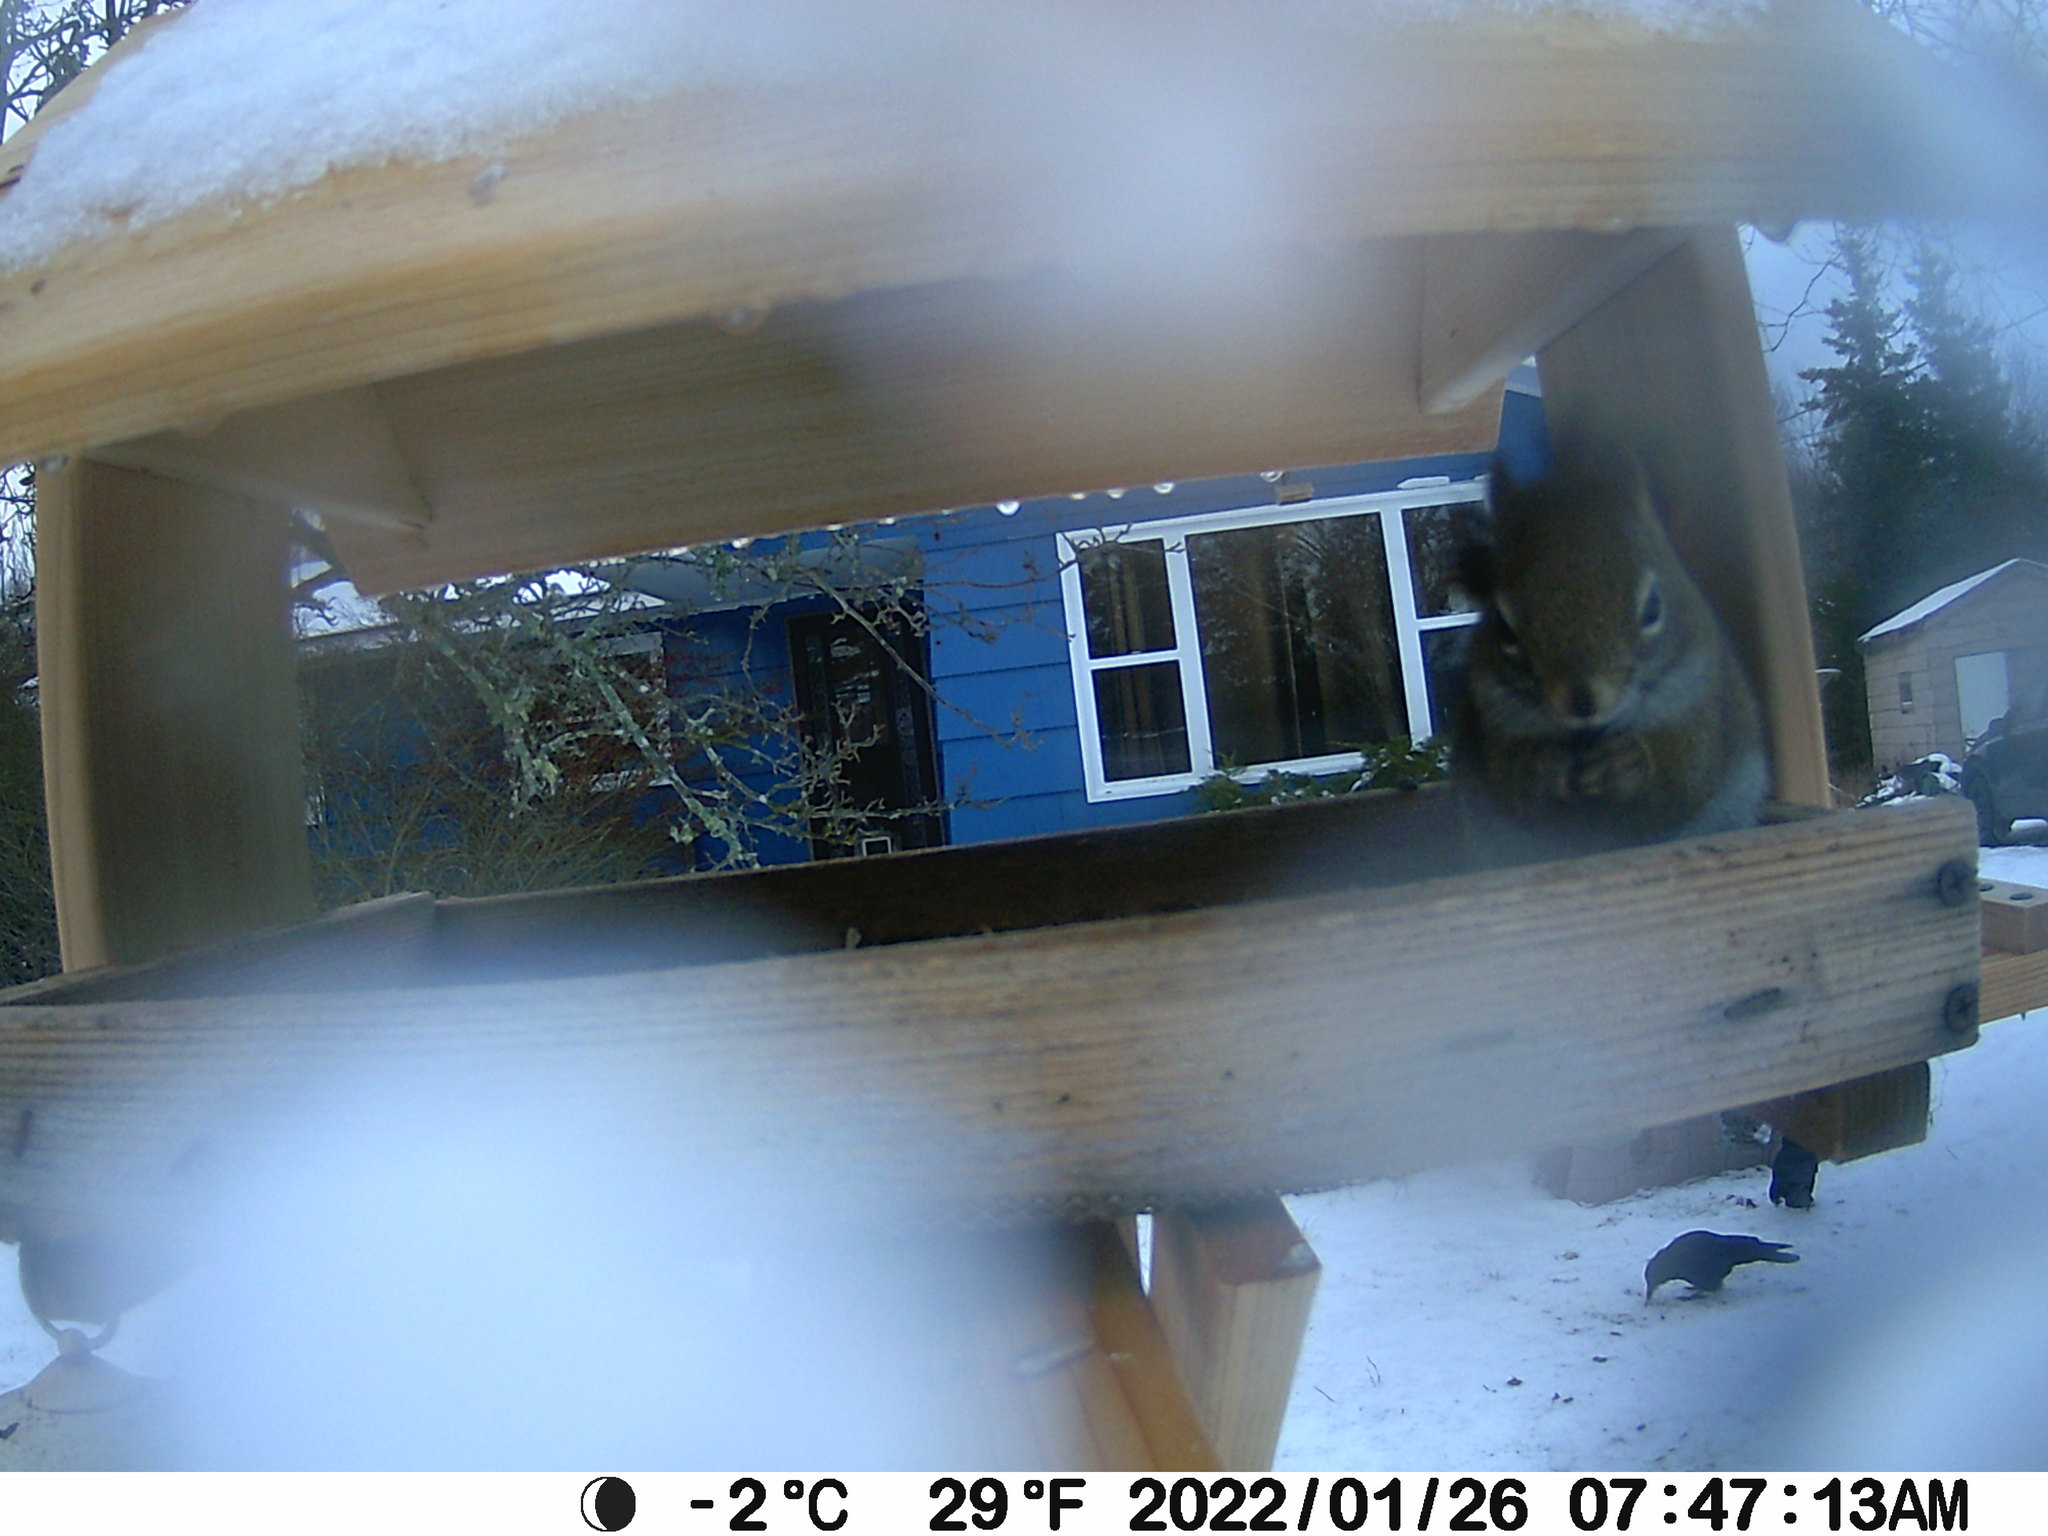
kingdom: Animalia
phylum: Chordata
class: Aves
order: Passeriformes
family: Corvidae
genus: Corvus
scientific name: Corvus brachyrhynchos
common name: American crow
